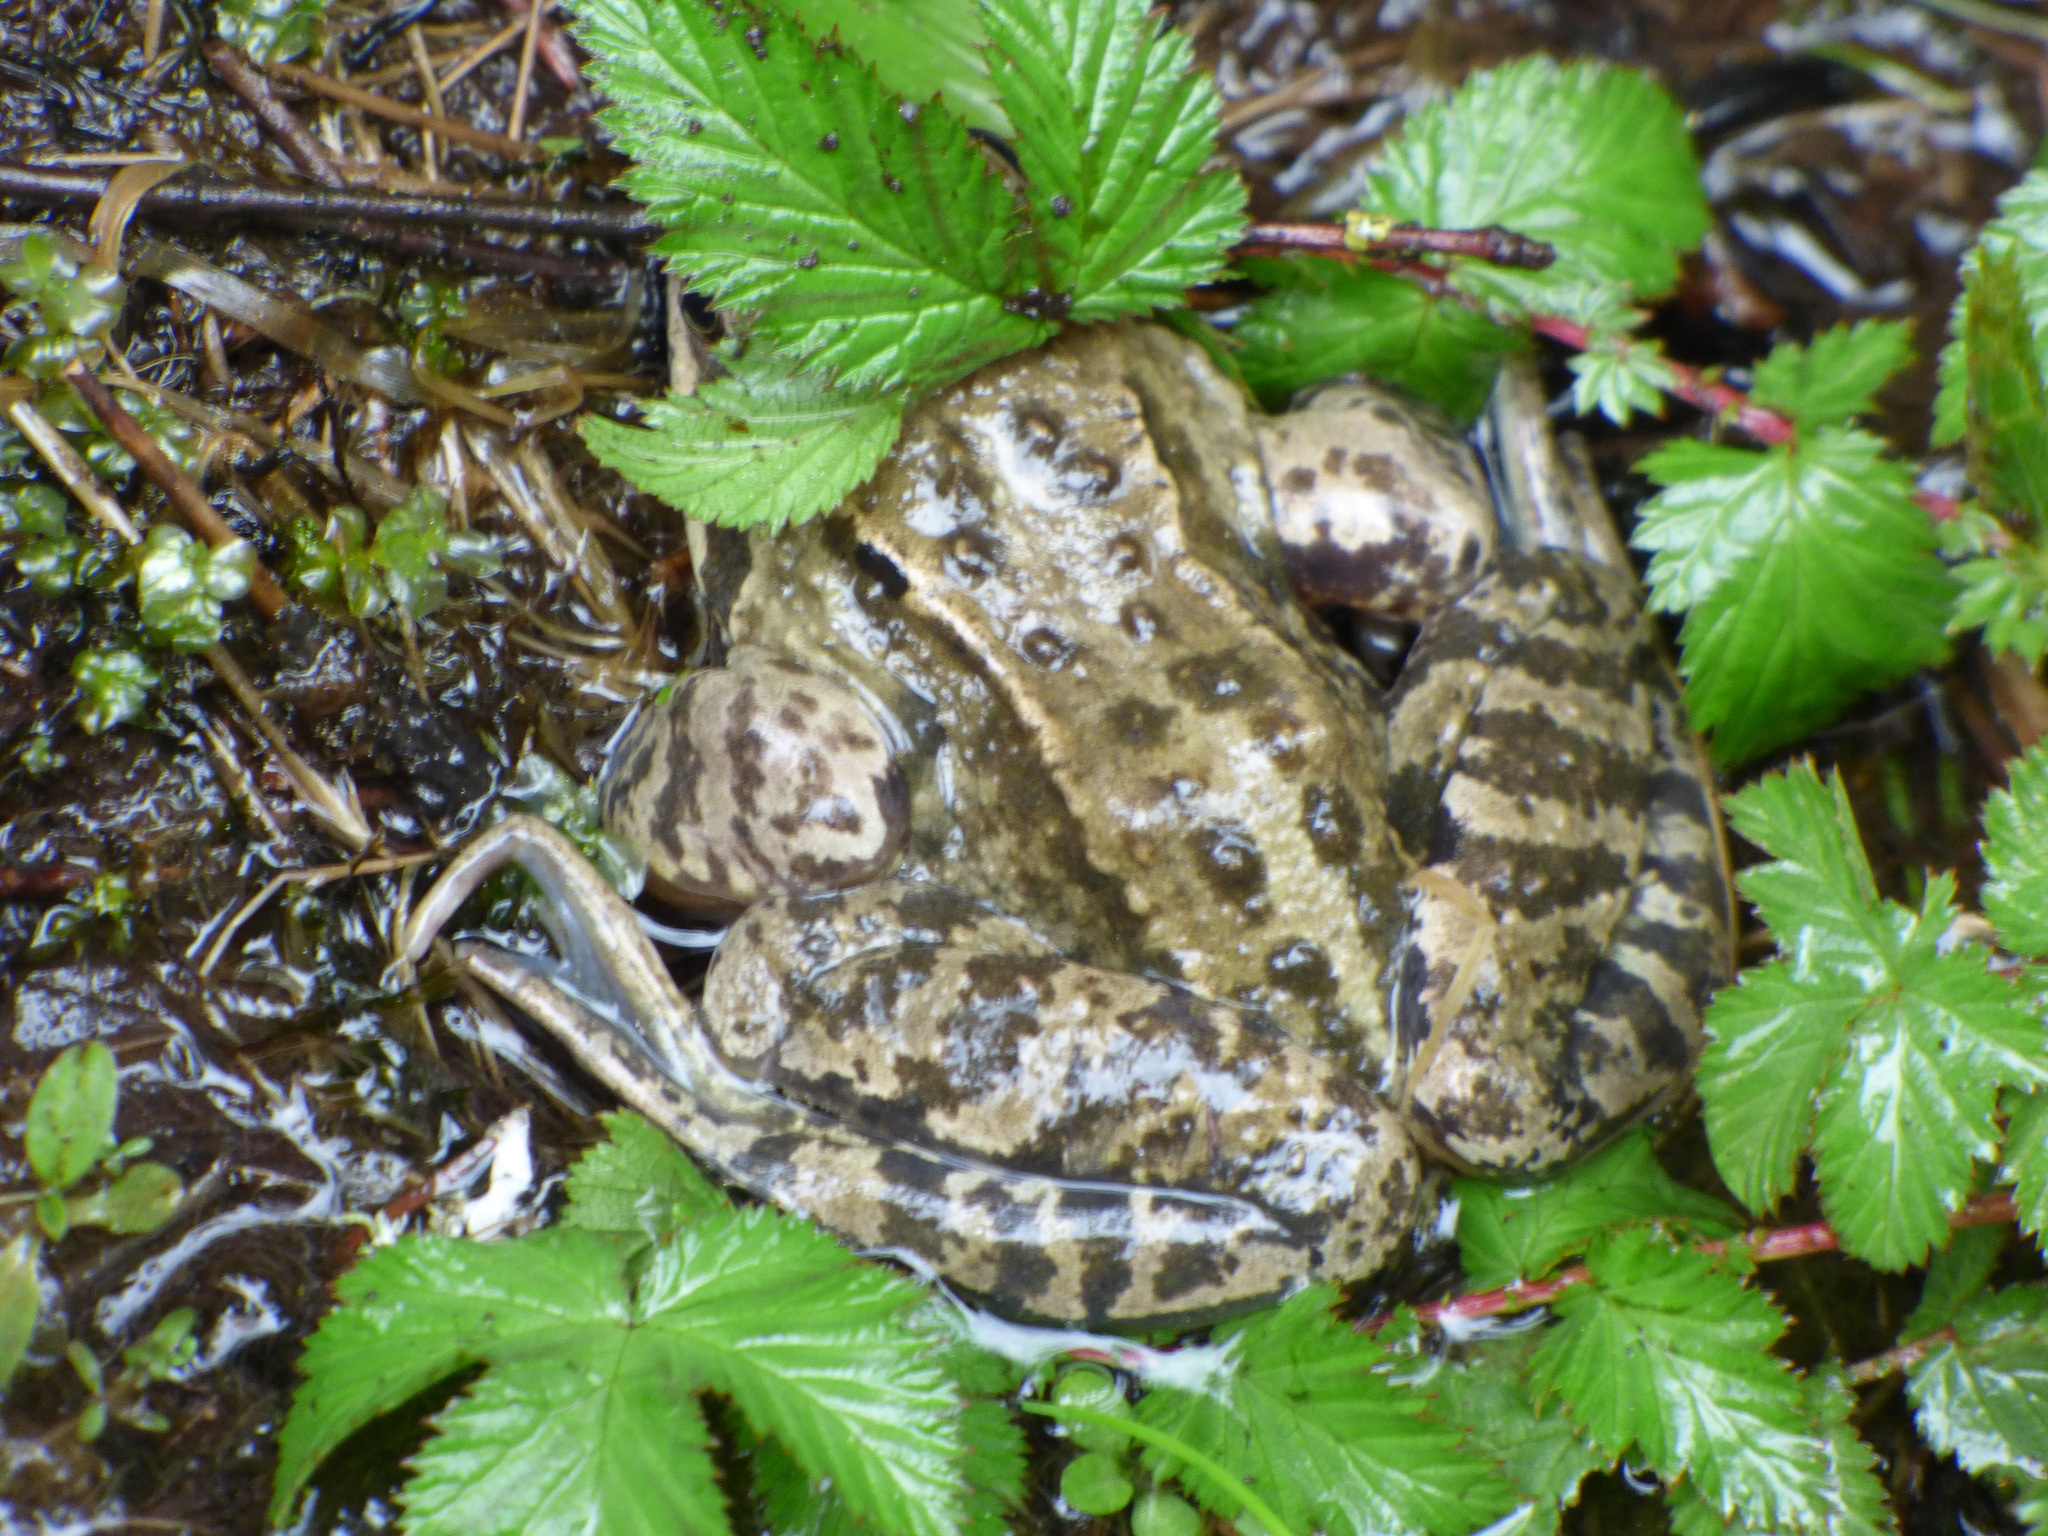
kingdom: Animalia
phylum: Chordata
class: Amphibia
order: Anura
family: Ranidae
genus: Rana
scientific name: Rana temporaria
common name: Common frog
